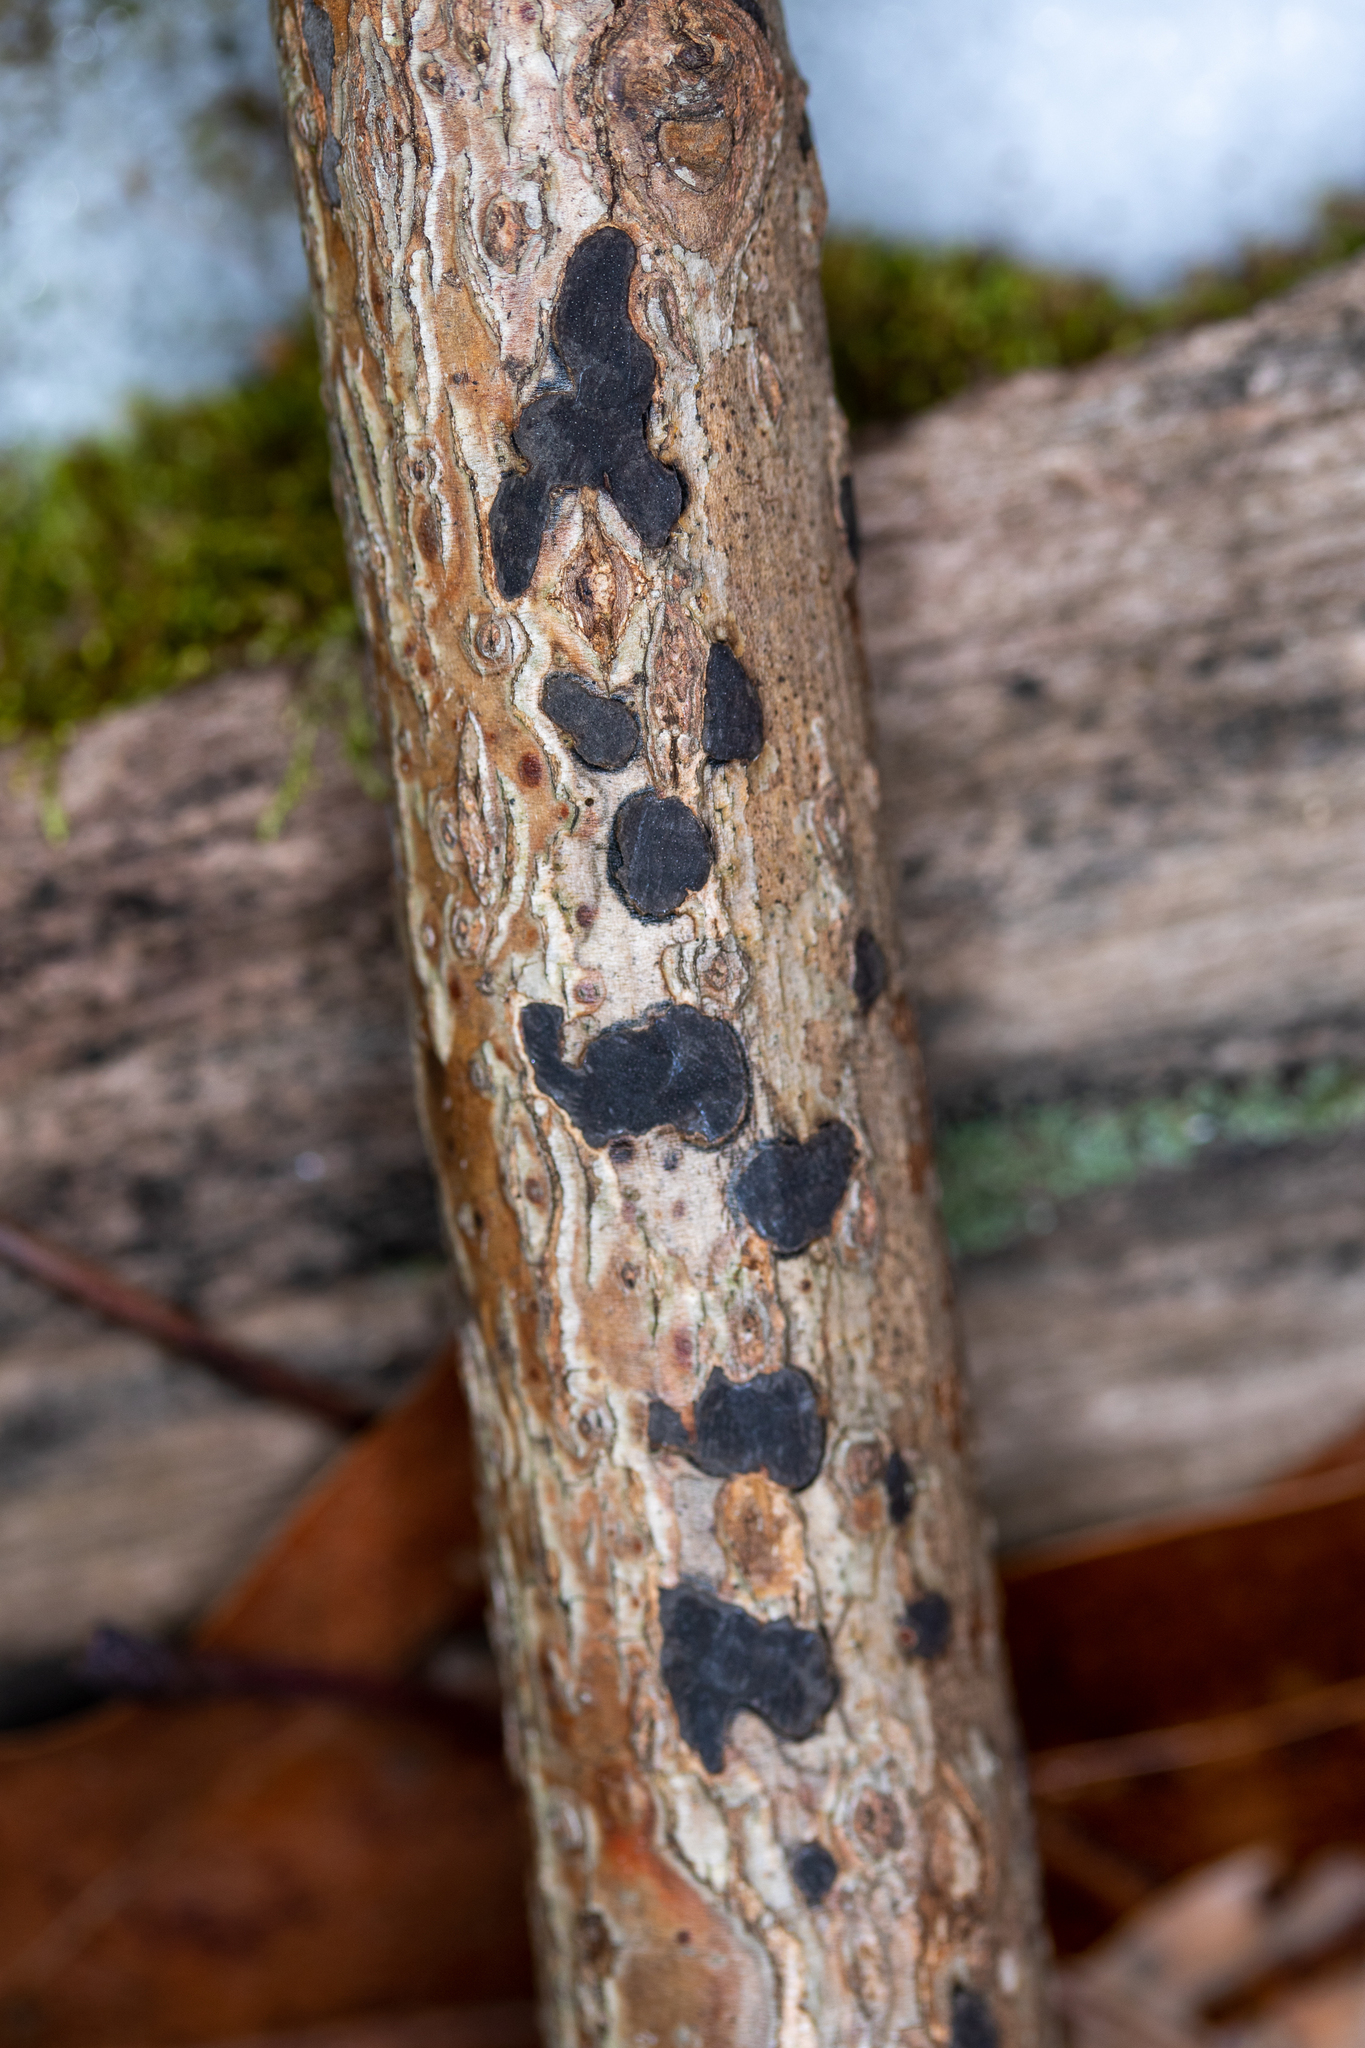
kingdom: Fungi
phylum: Ascomycota
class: Sordariomycetes
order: Xylariales
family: Xylariaceae
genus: Whalleya
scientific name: Whalleya microplaca
